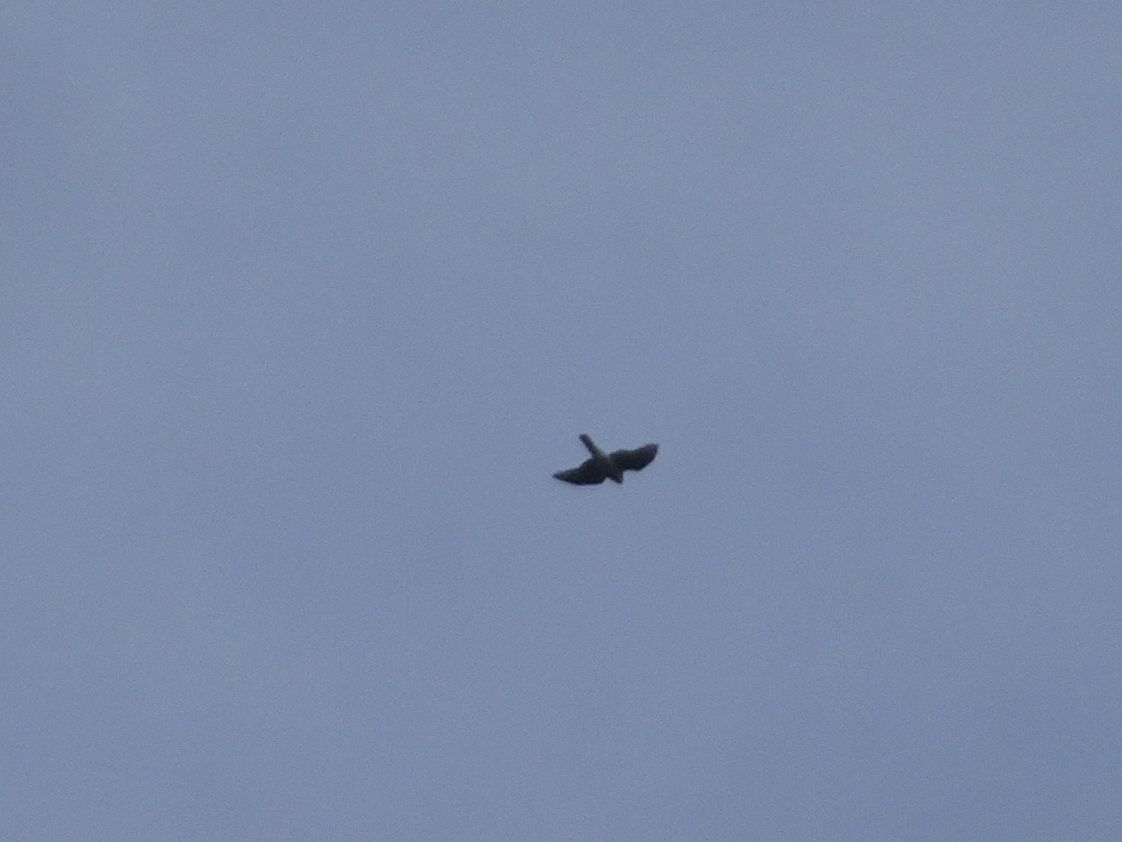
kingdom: Animalia
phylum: Chordata
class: Aves
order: Accipitriformes
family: Accipitridae
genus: Accipiter
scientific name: Accipiter nisus
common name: Eurasian sparrowhawk
